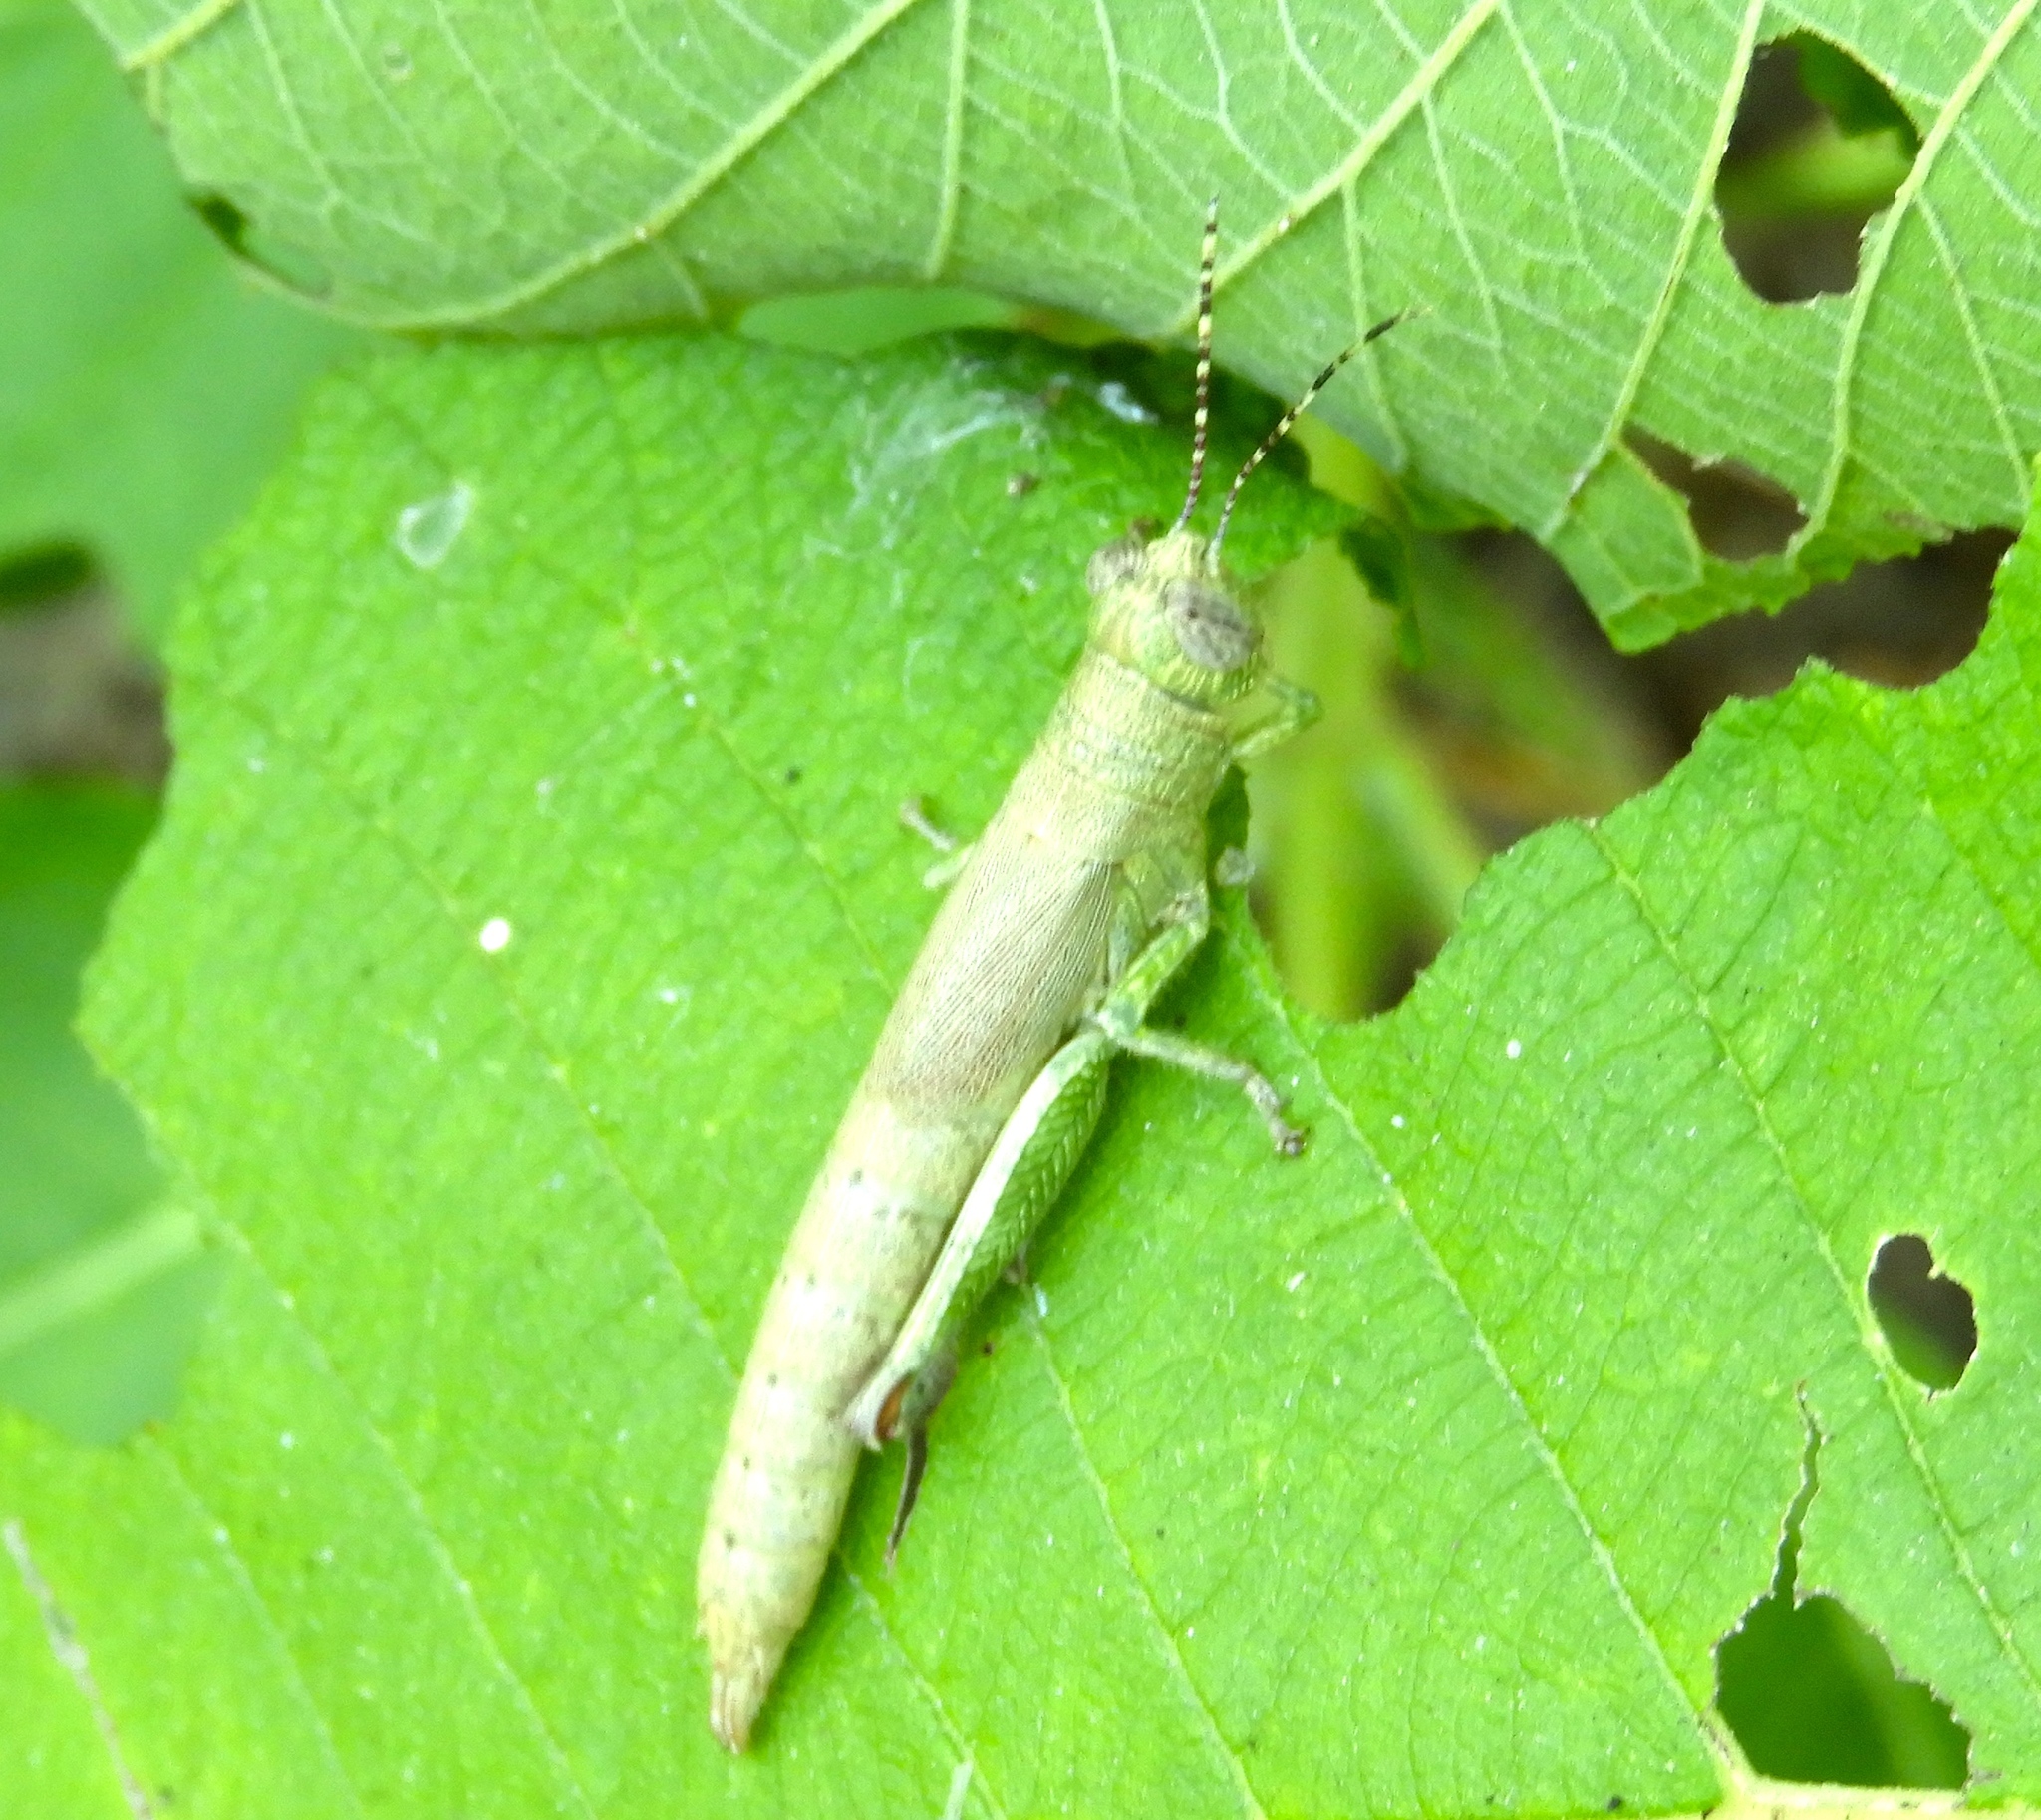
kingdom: Animalia
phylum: Arthropoda
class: Insecta
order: Orthoptera
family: Acrididae
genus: Proctolabus
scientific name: Proctolabus cerciatus
